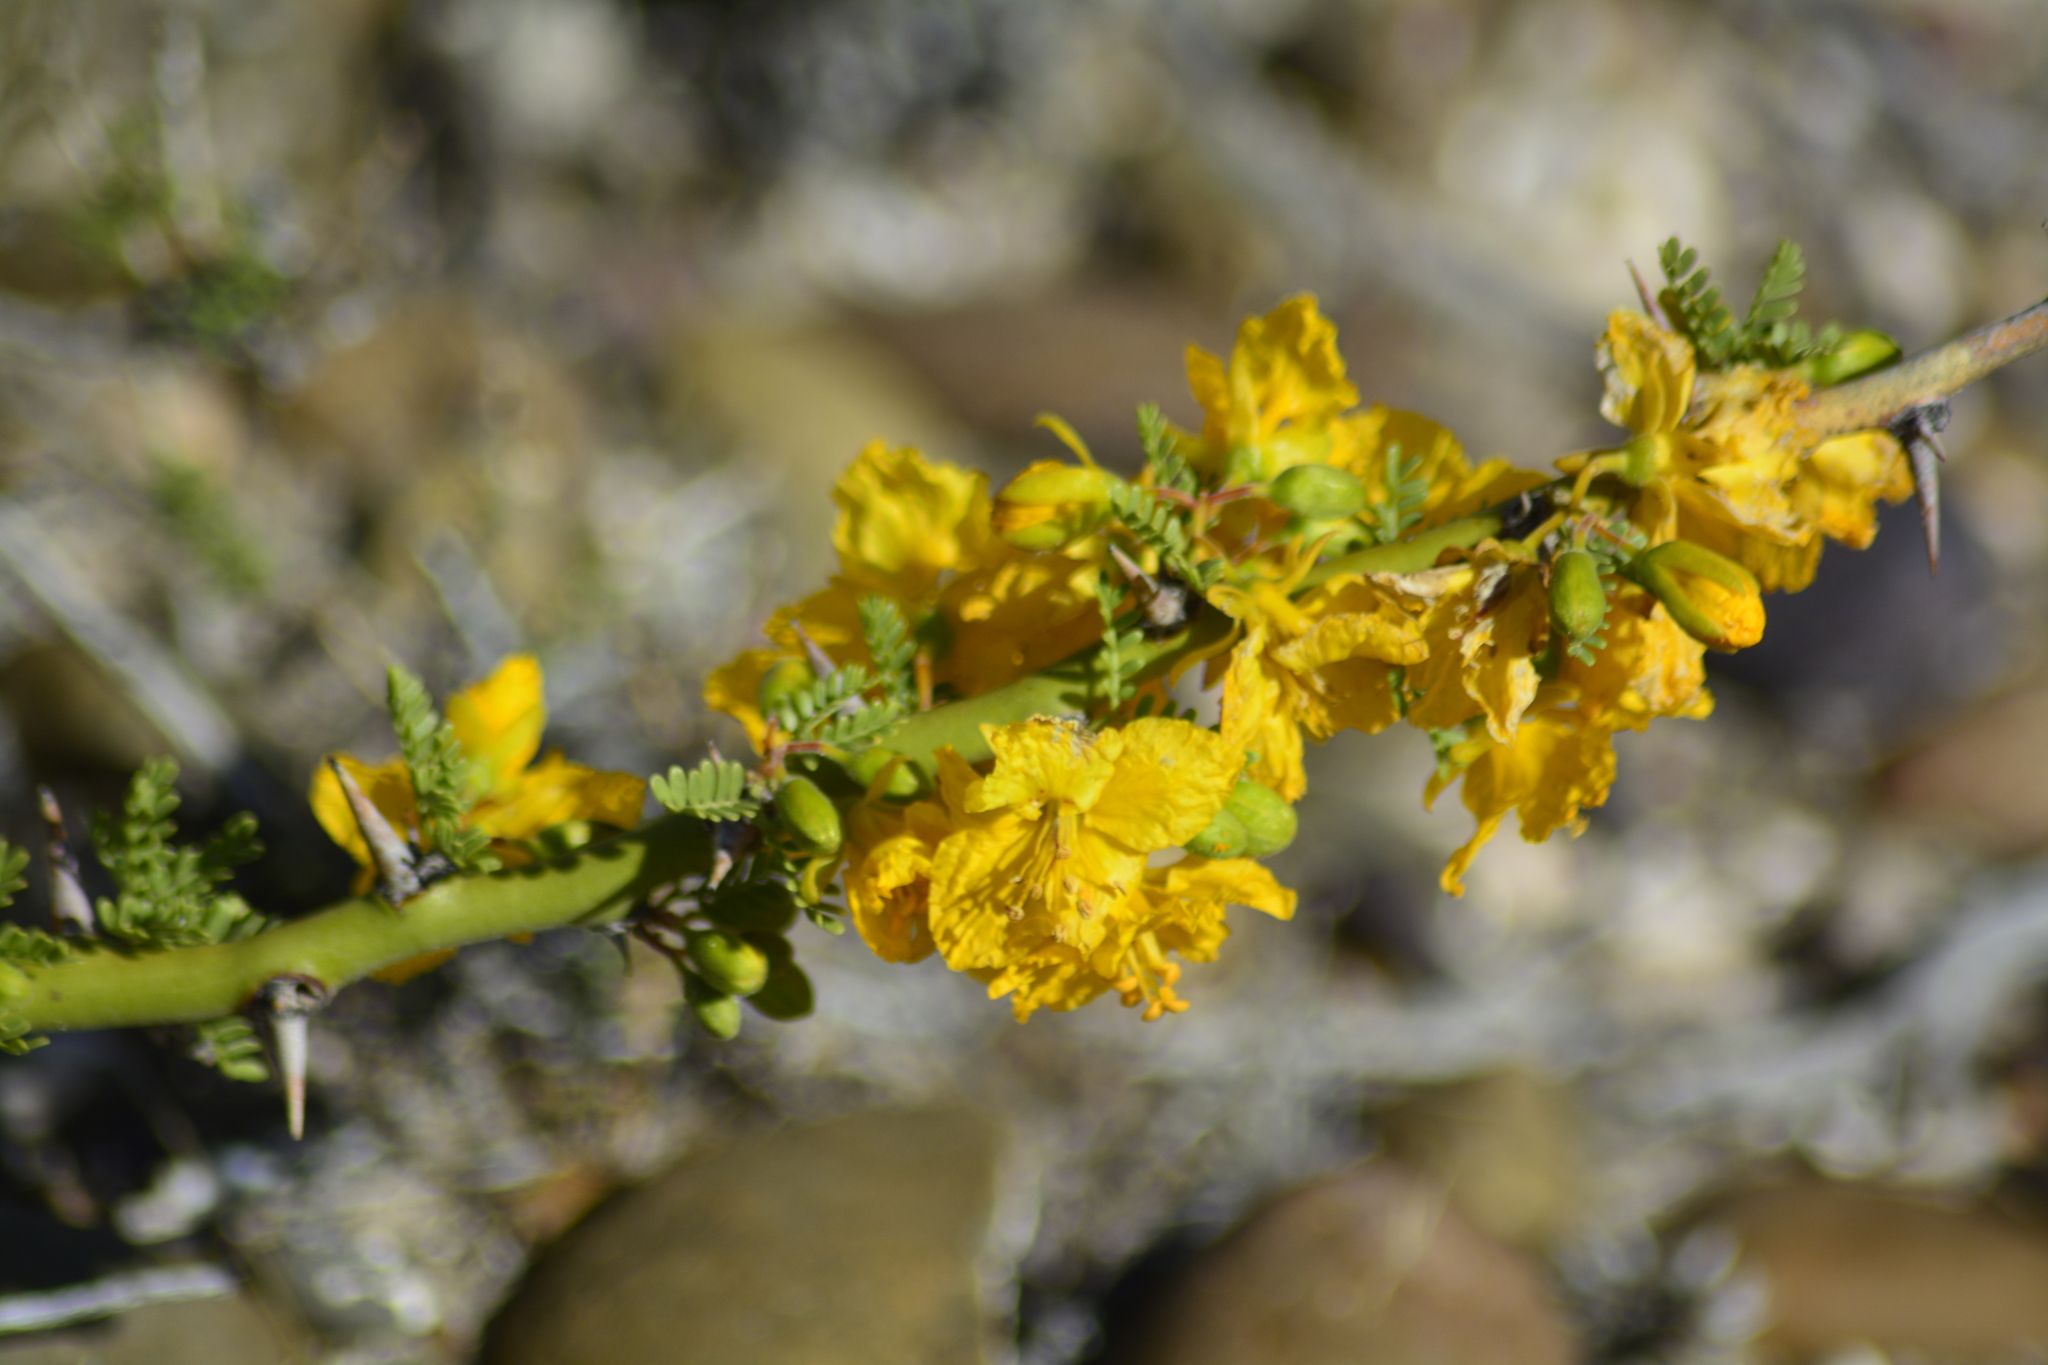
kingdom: Plantae
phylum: Tracheophyta
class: Magnoliopsida
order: Fabales
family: Fabaceae
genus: Parkinsonia
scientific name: Parkinsonia praecox
